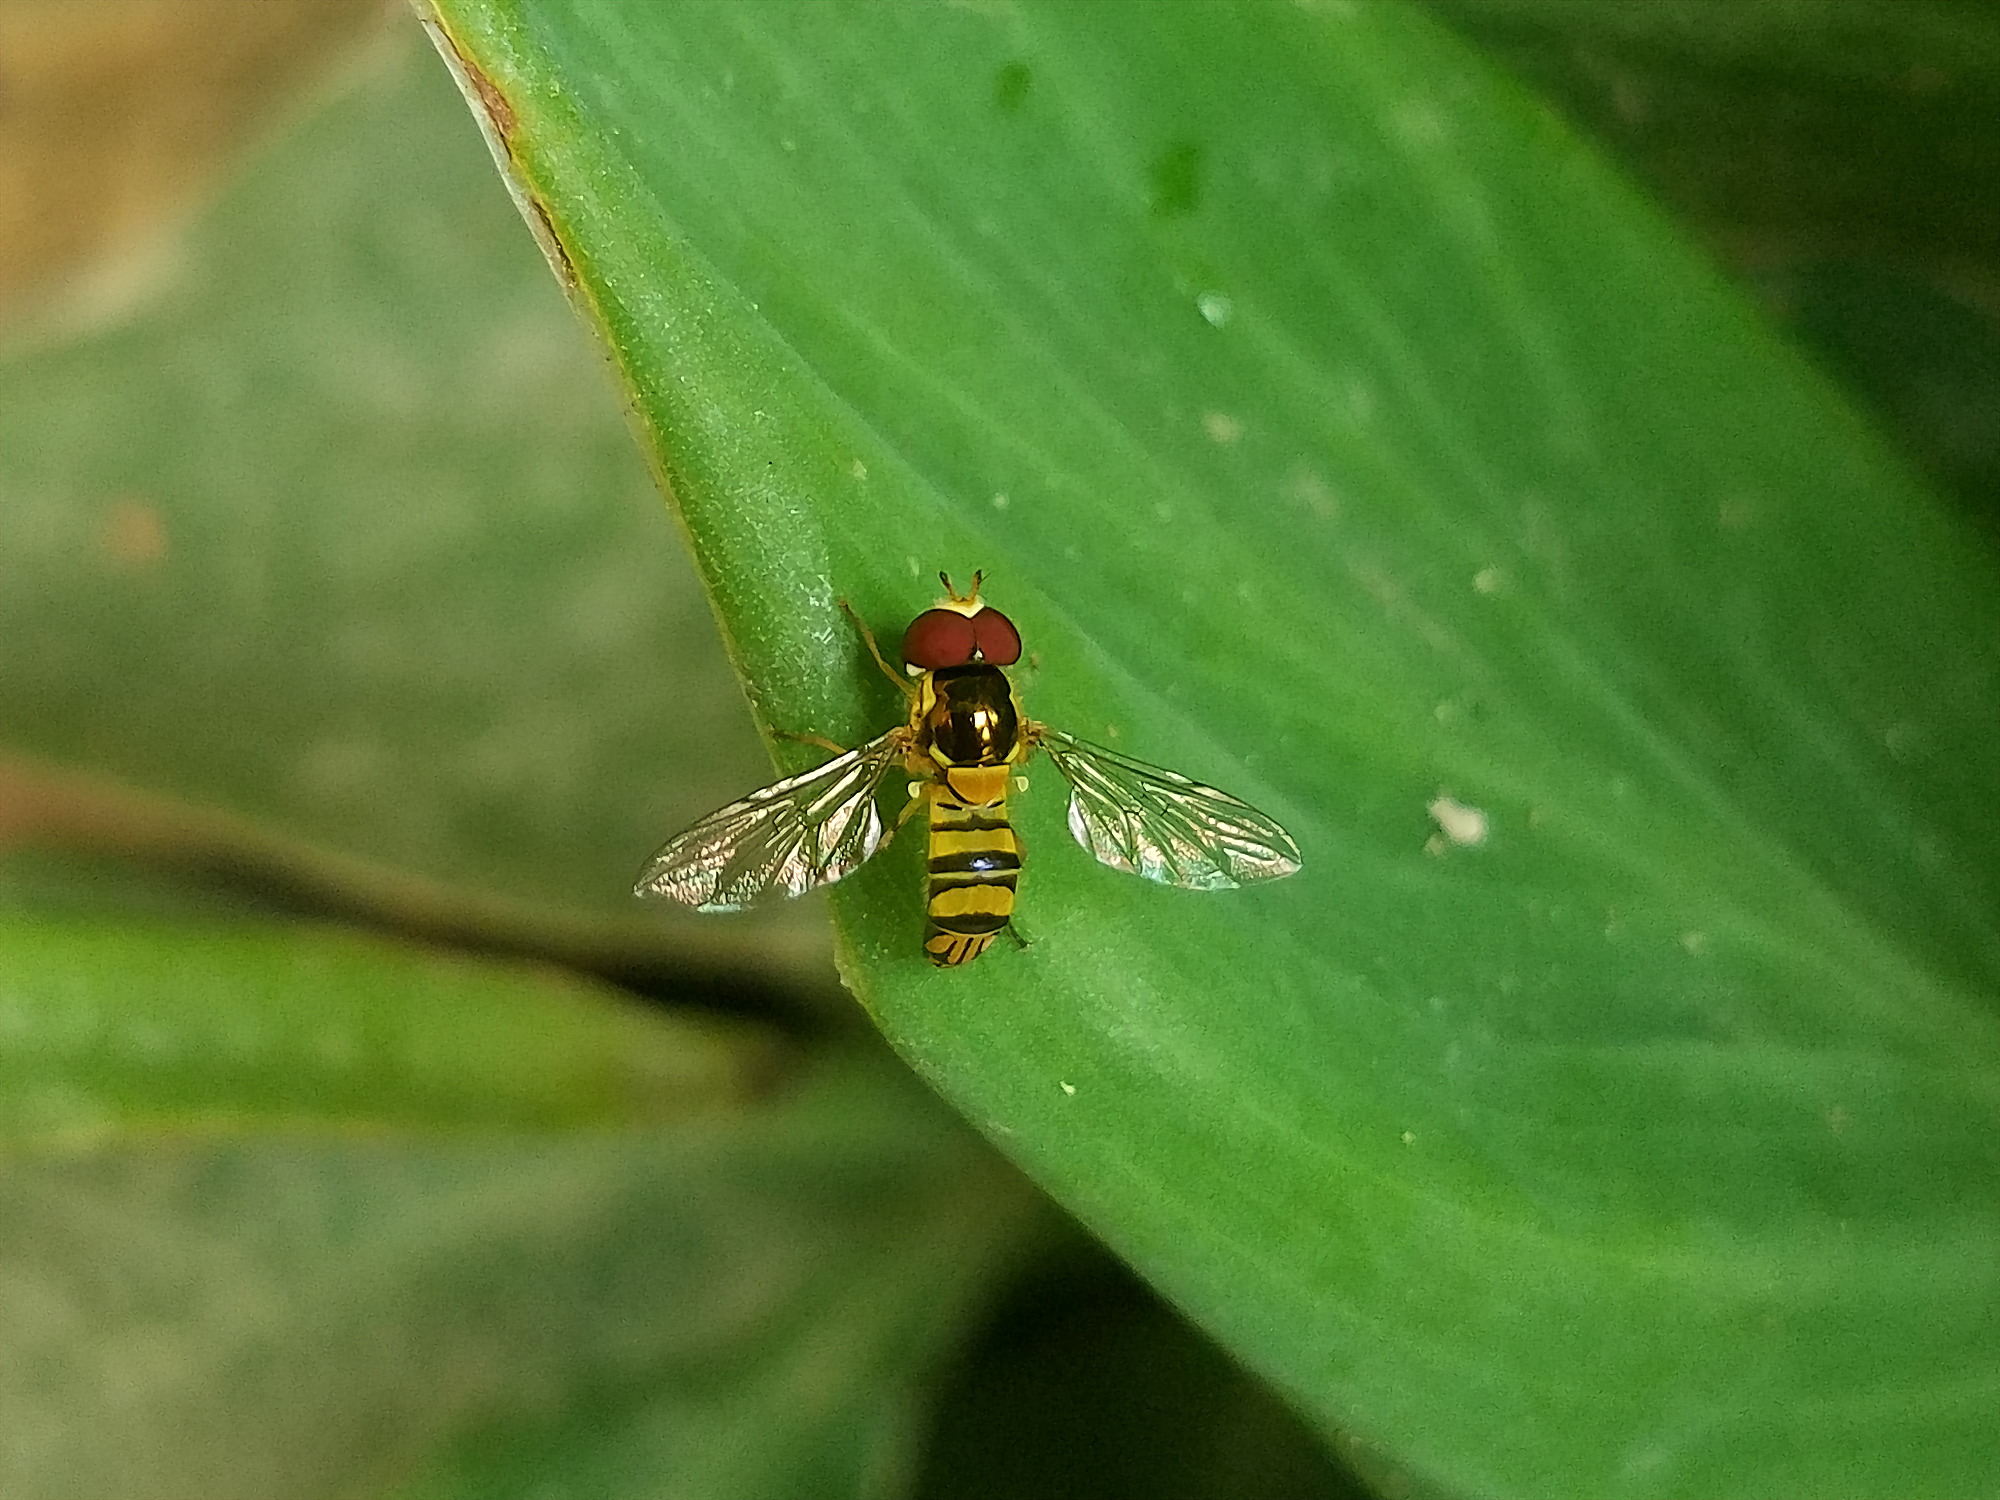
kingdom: Animalia
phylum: Arthropoda
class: Insecta
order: Diptera
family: Syrphidae
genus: Allograpta
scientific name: Allograpta obliqua
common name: Common oblique syrphid
